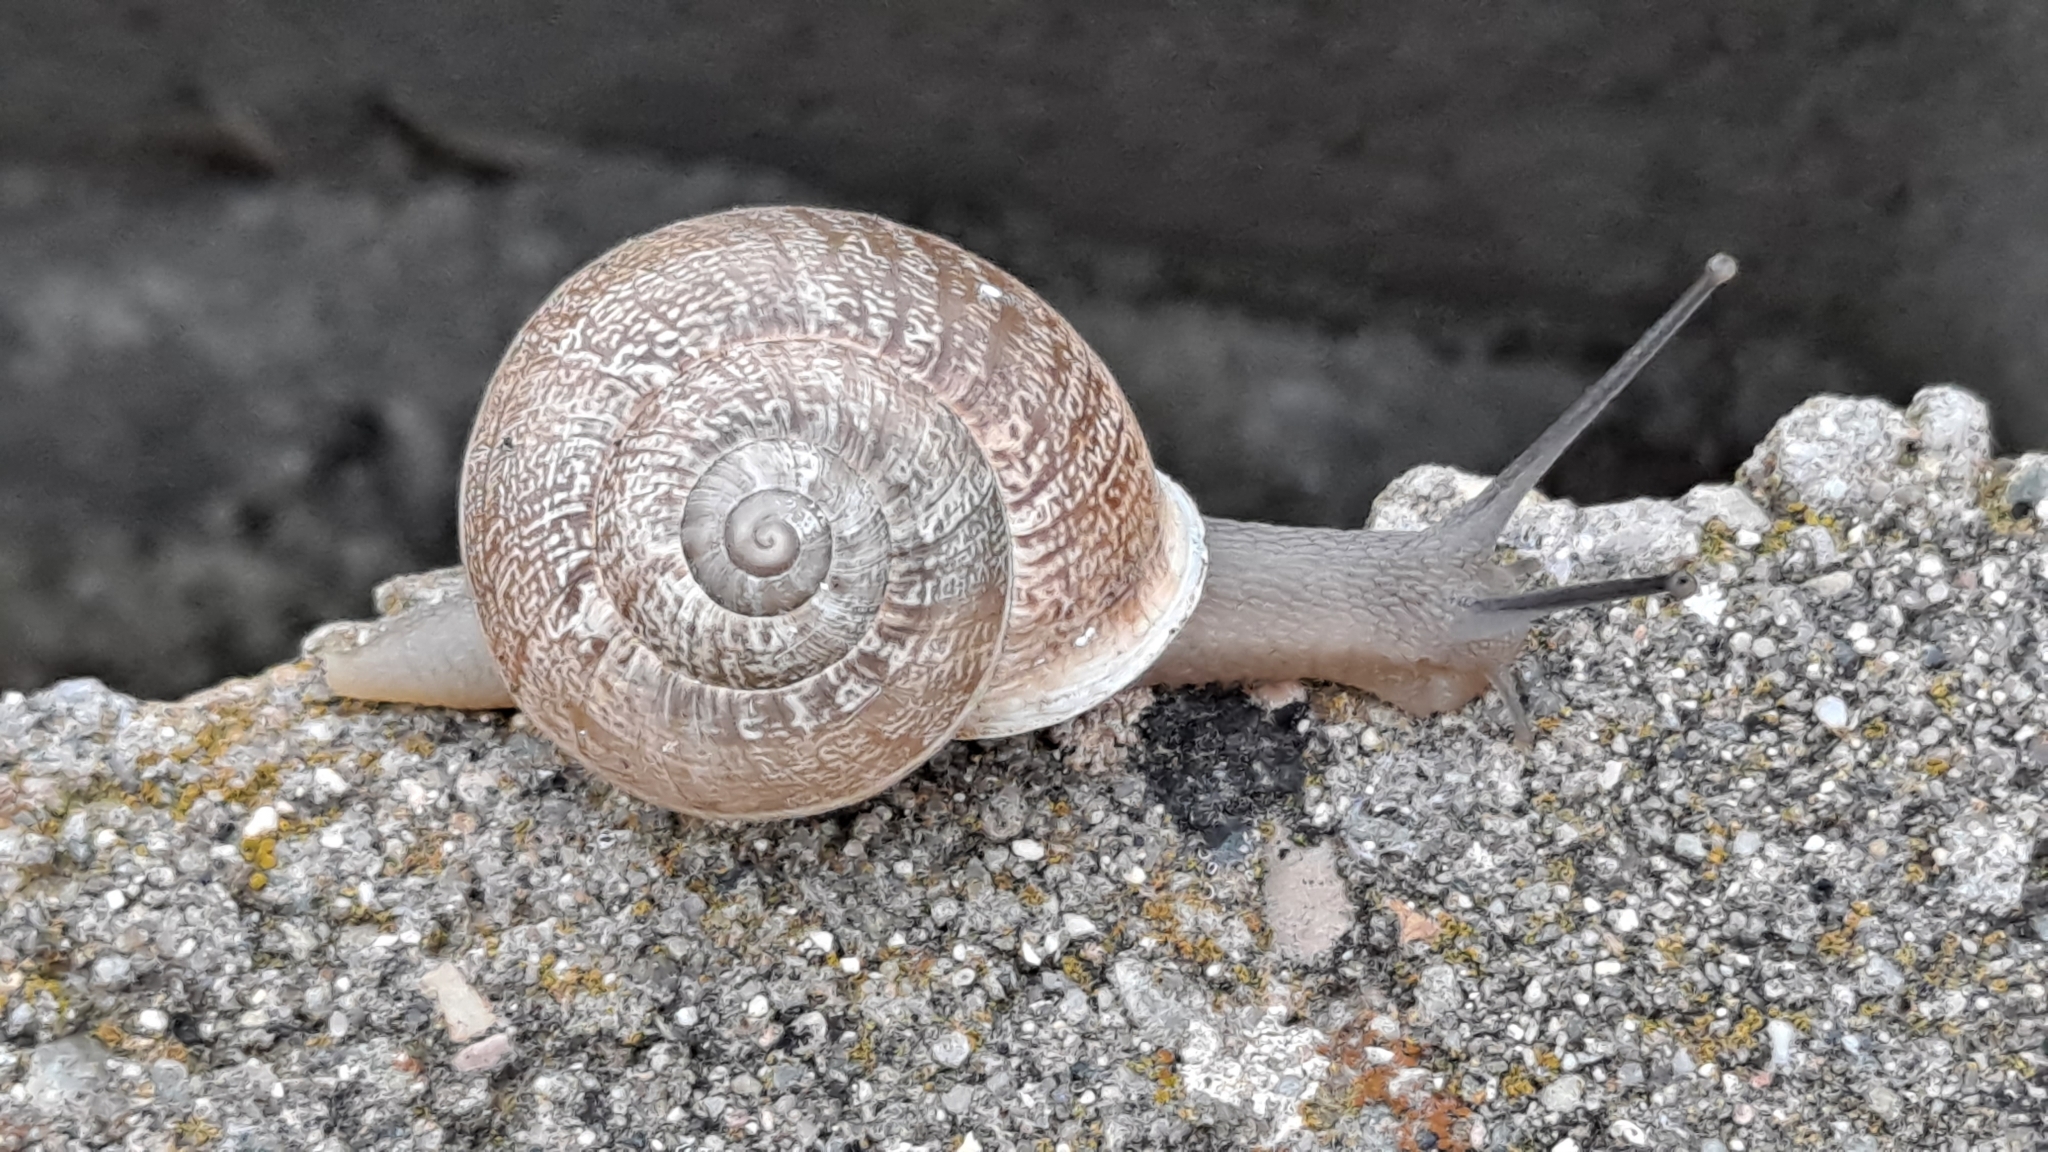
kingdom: Animalia
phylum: Mollusca
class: Gastropoda
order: Stylommatophora
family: Helicidae
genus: Eobania
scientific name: Eobania vermiculata
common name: Chocolateband snail
